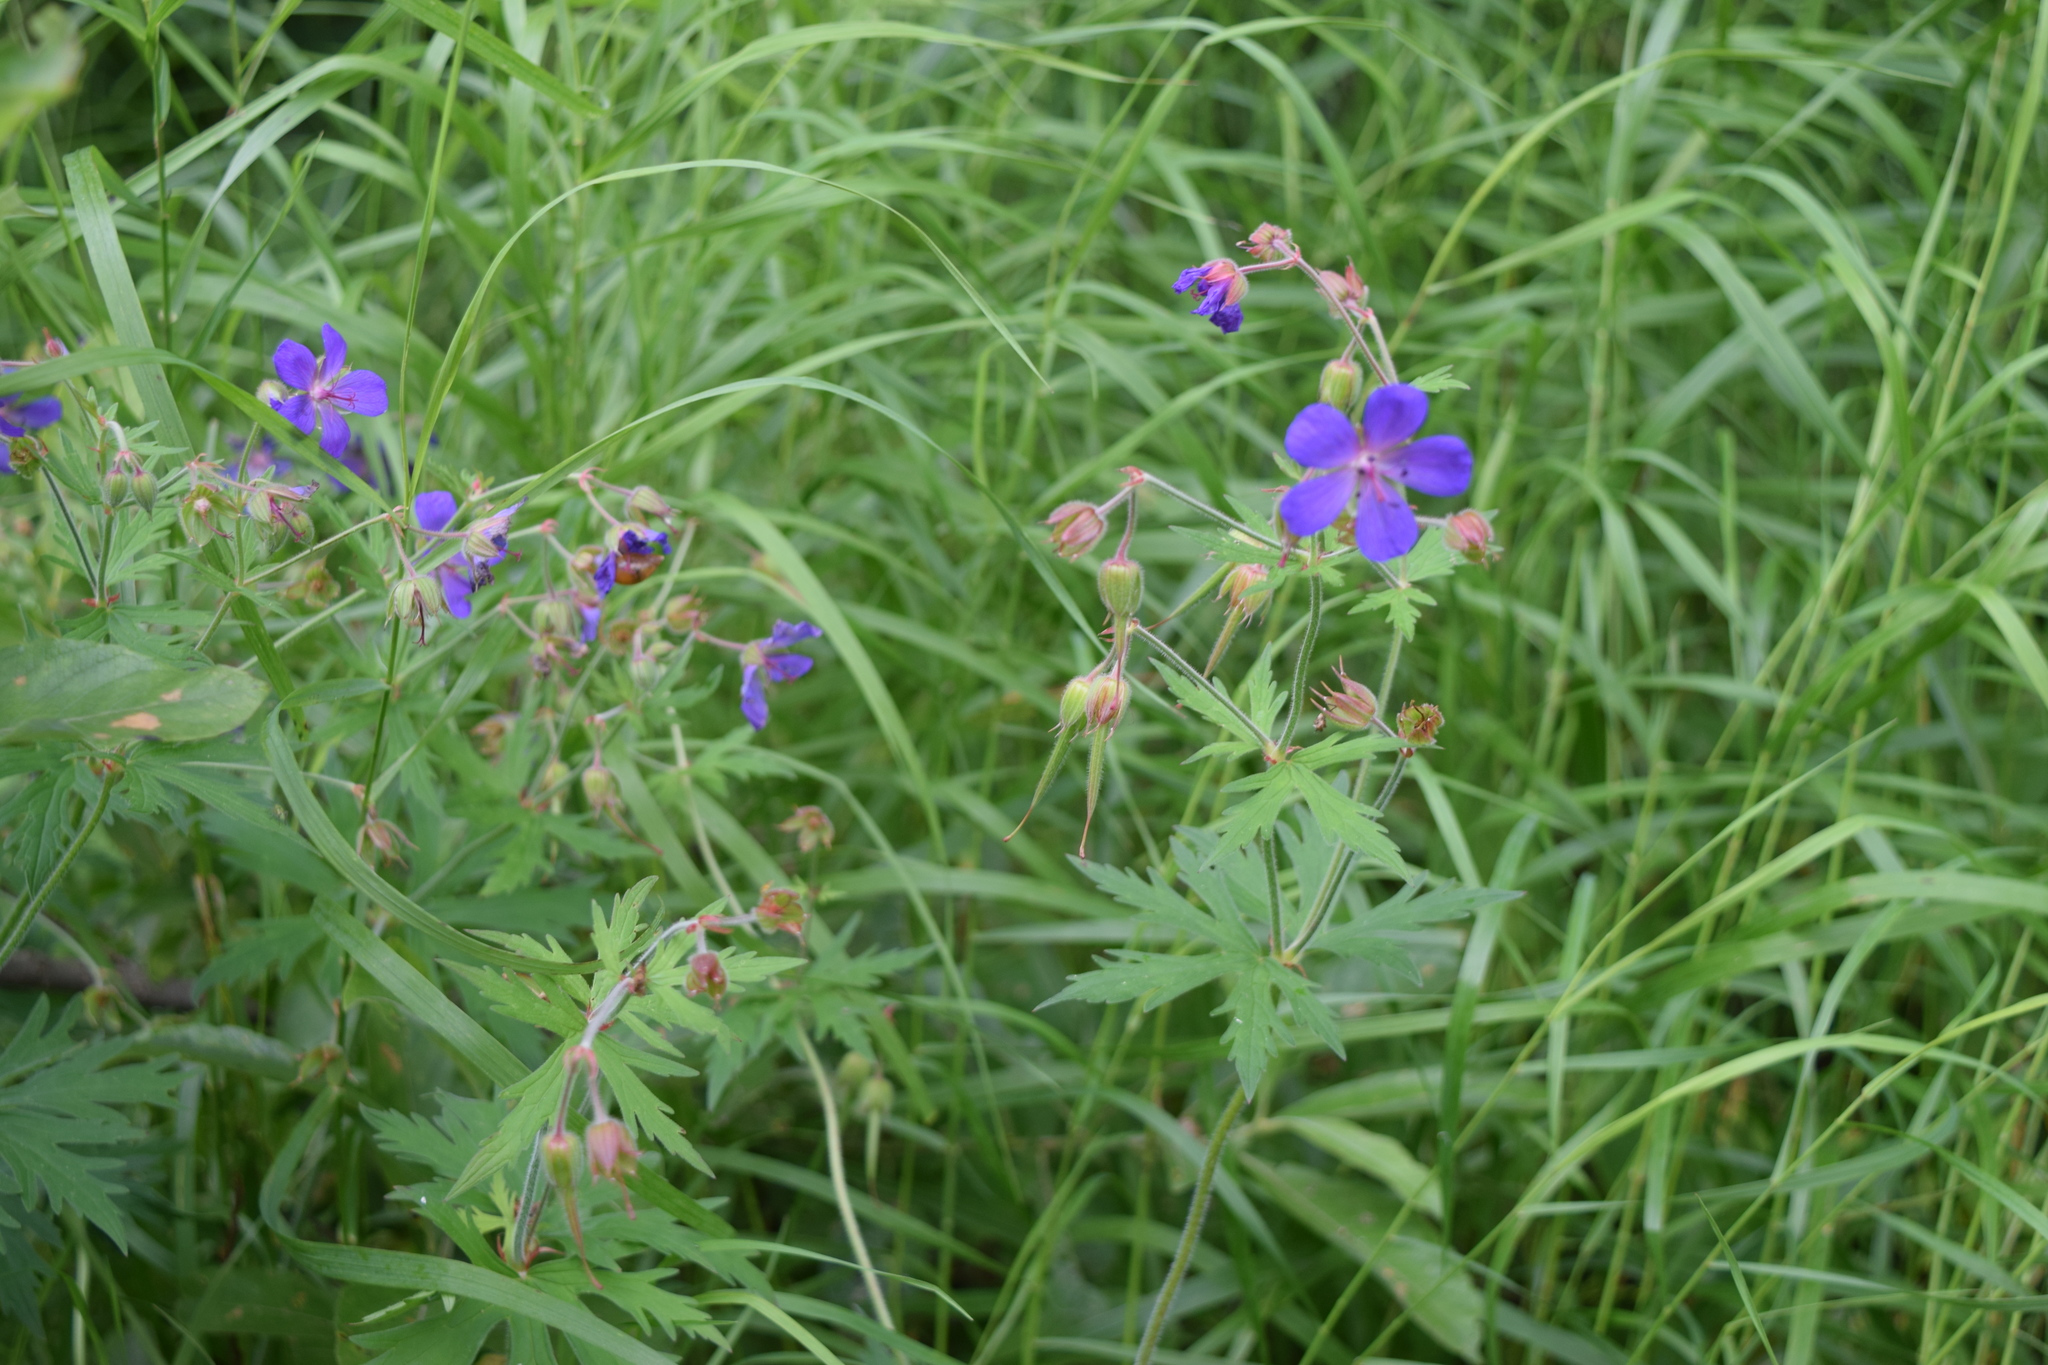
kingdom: Plantae
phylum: Tracheophyta
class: Magnoliopsida
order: Geraniales
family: Geraniaceae
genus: Geranium
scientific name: Geranium pratense
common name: Meadow crane's-bill
